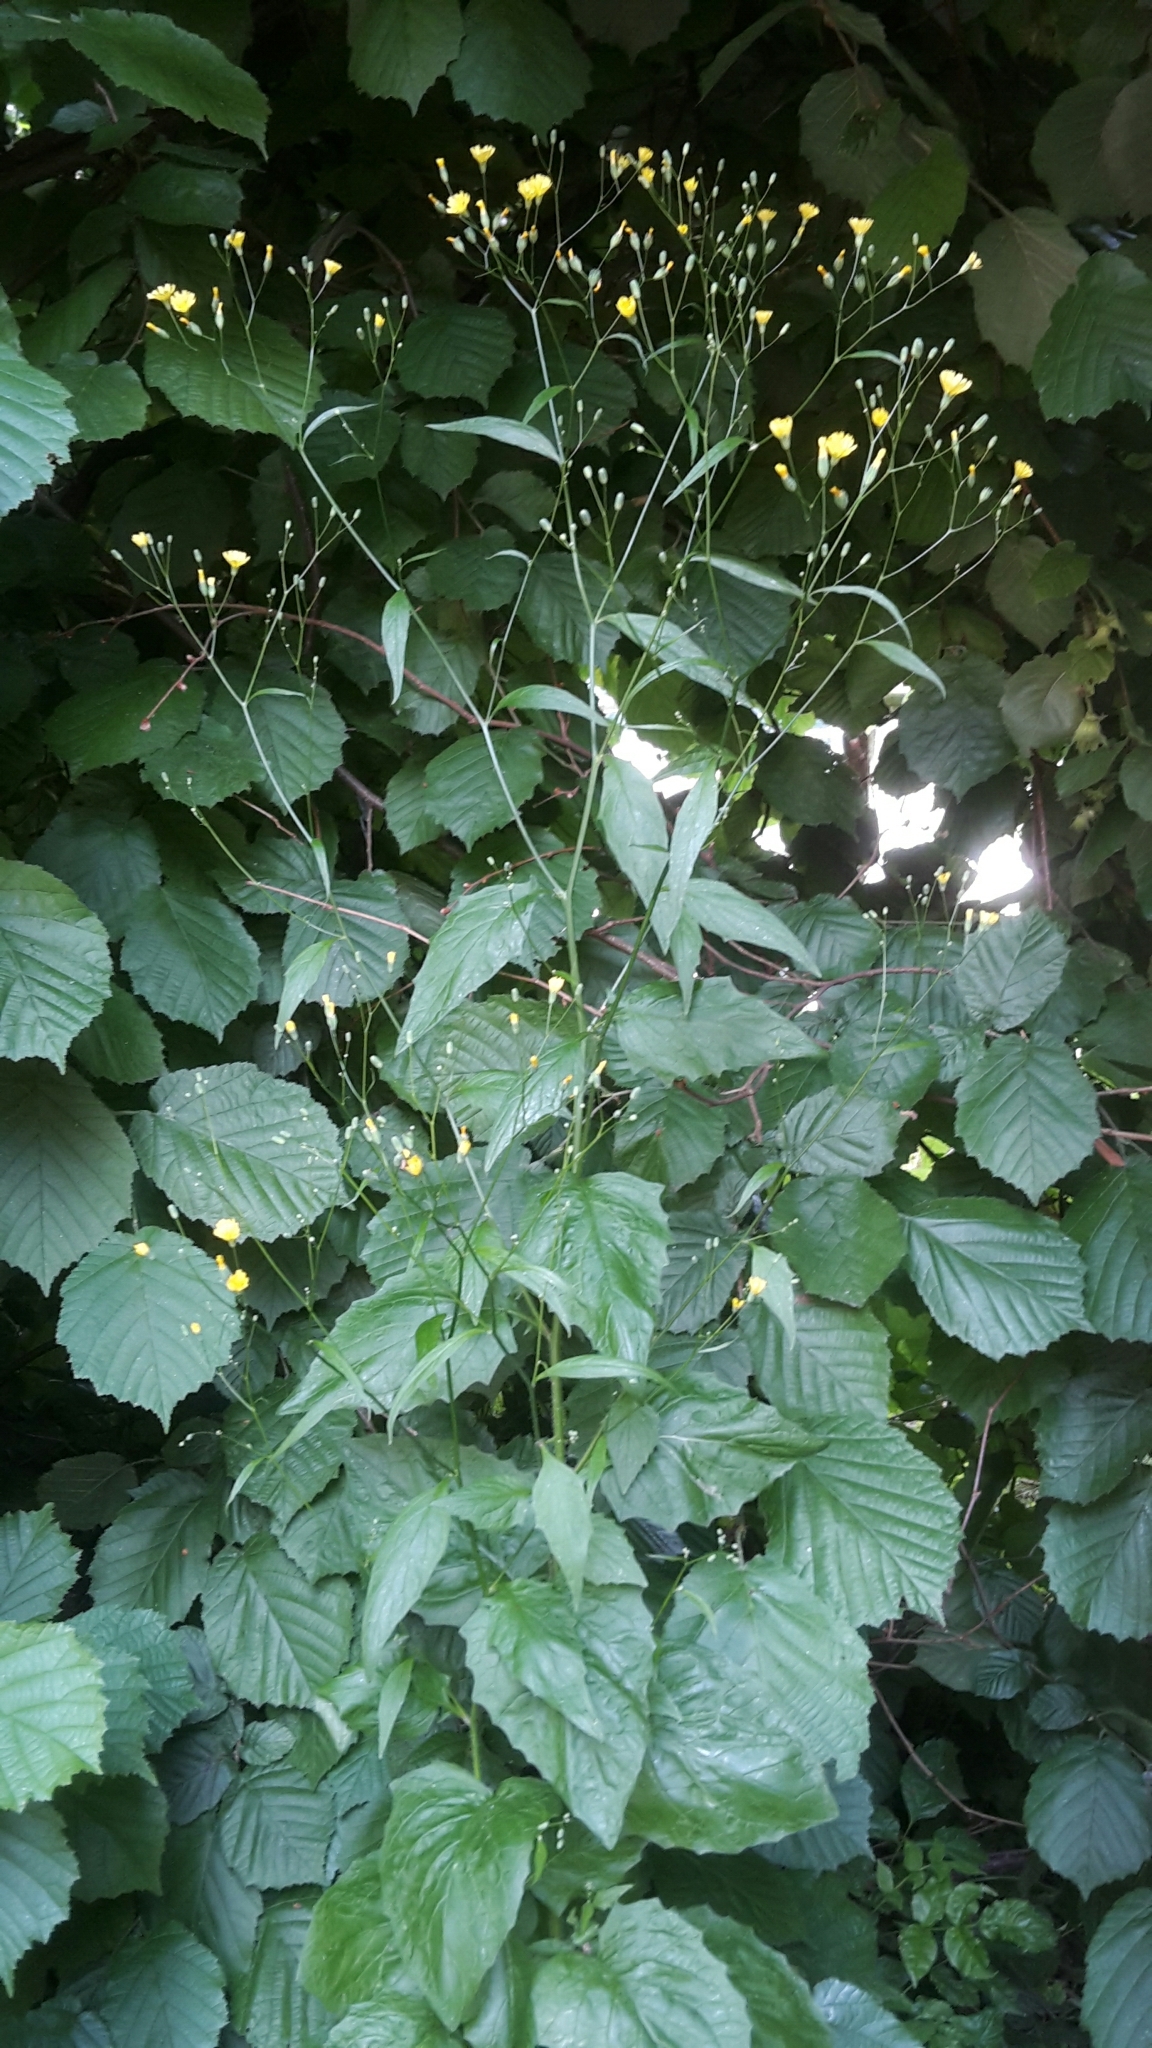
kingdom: Plantae
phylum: Tracheophyta
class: Magnoliopsida
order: Asterales
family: Asteraceae
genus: Lapsana
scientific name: Lapsana communis
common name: Nipplewort
